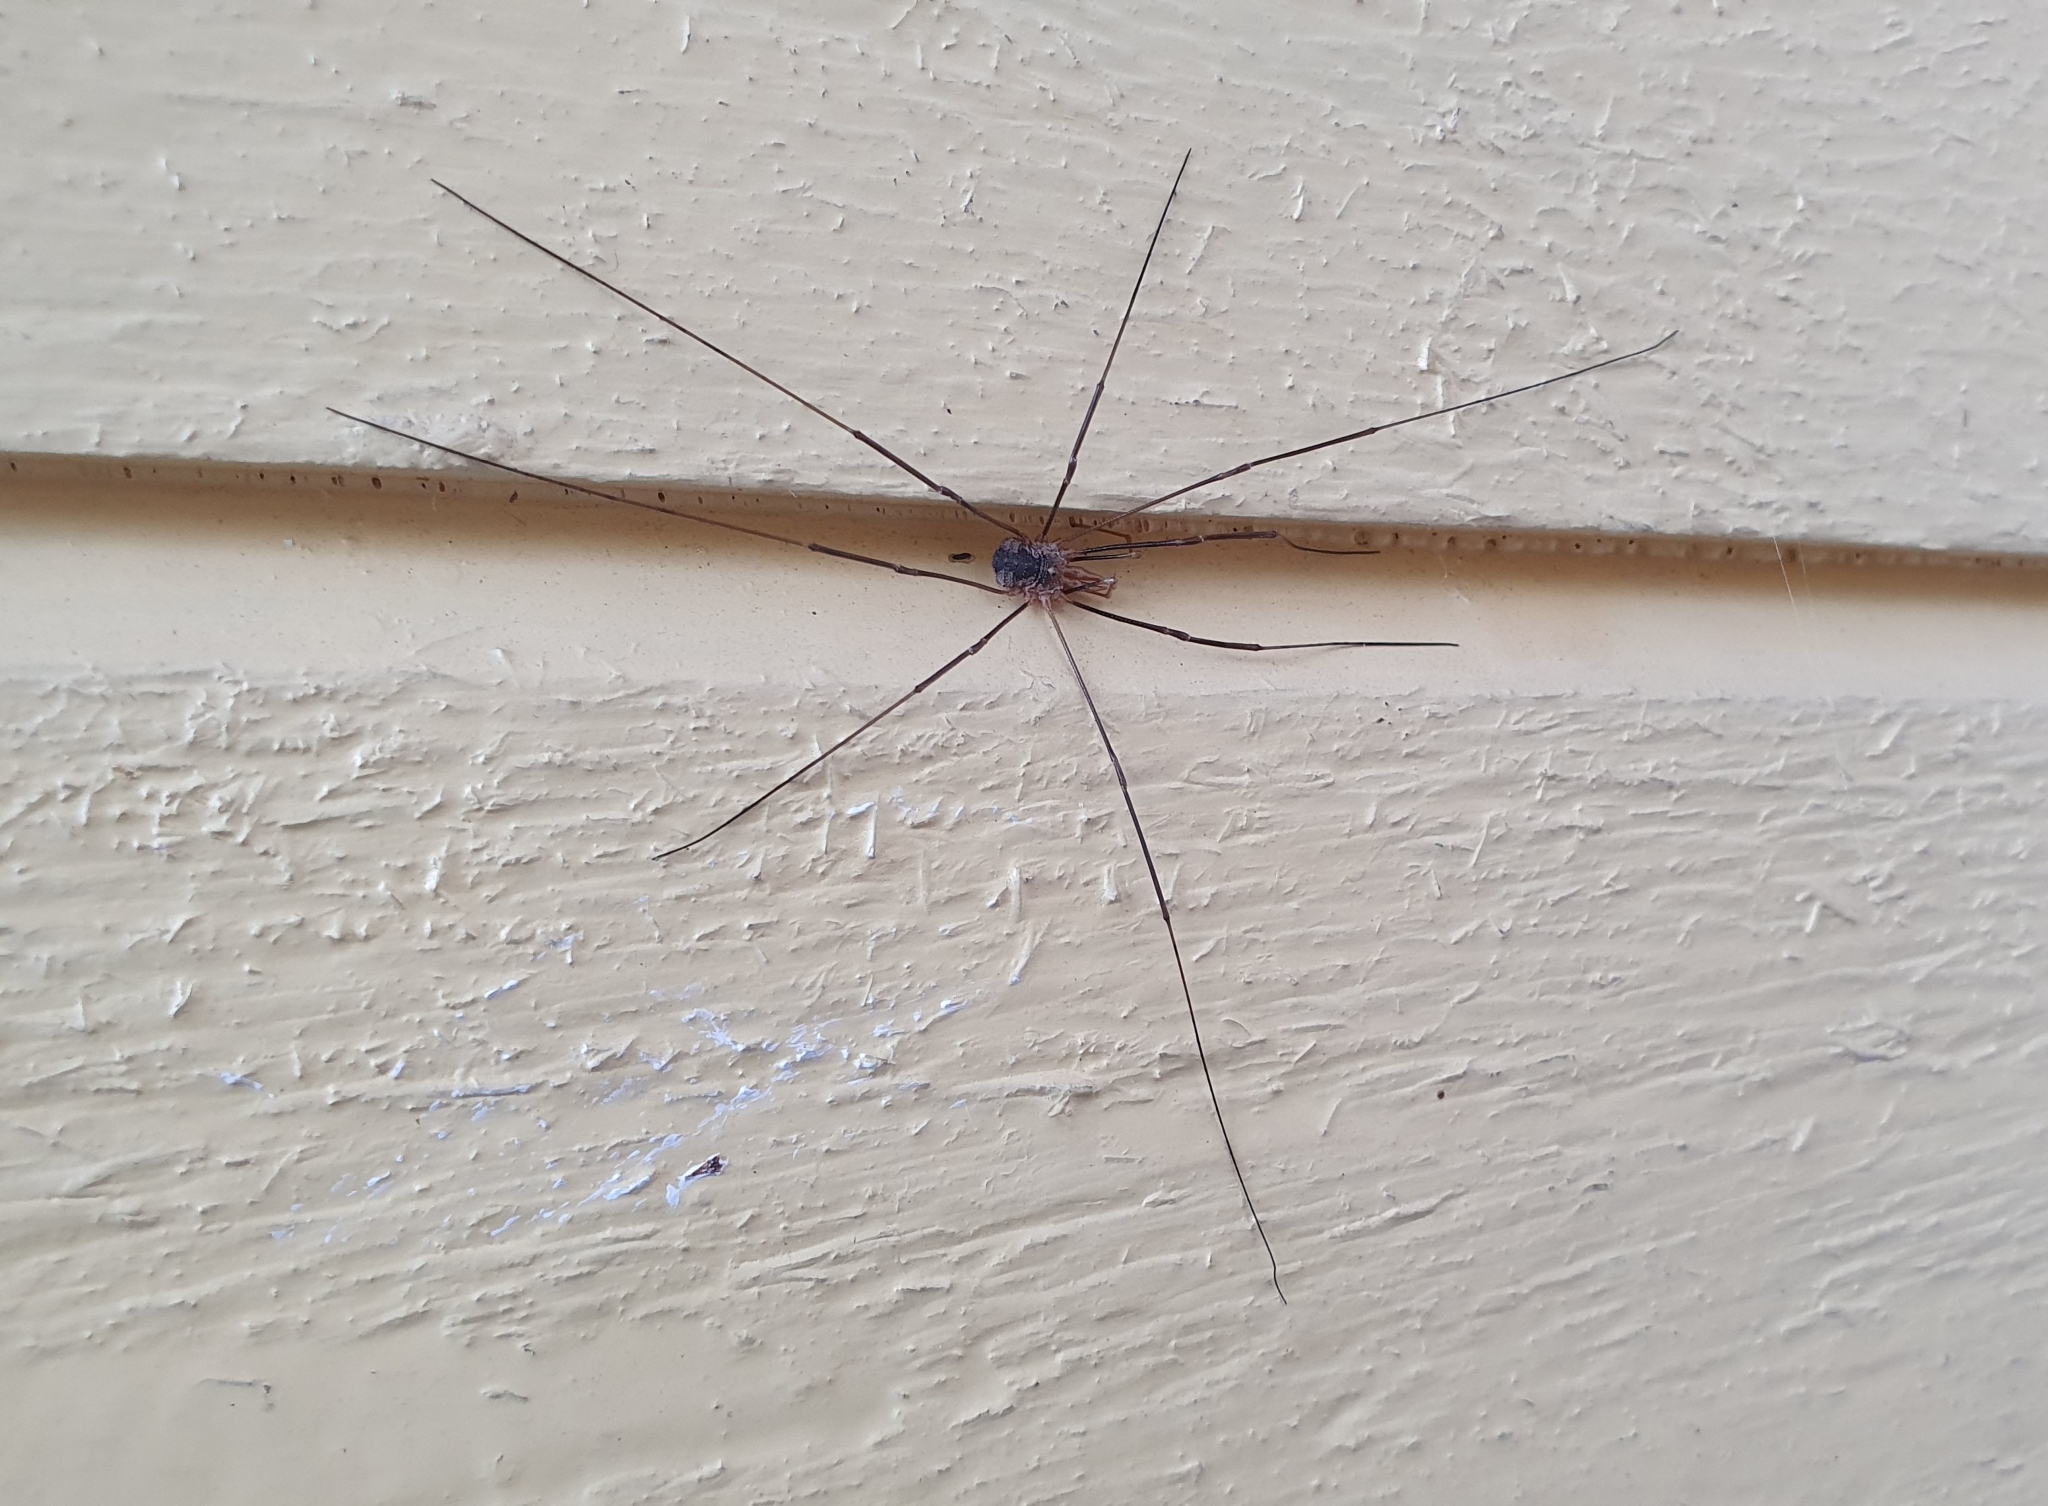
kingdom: Animalia
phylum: Arthropoda
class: Arachnida
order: Opiliones
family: Phalangiidae
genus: Phalangium
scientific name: Phalangium opilio
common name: Daddy longleg
